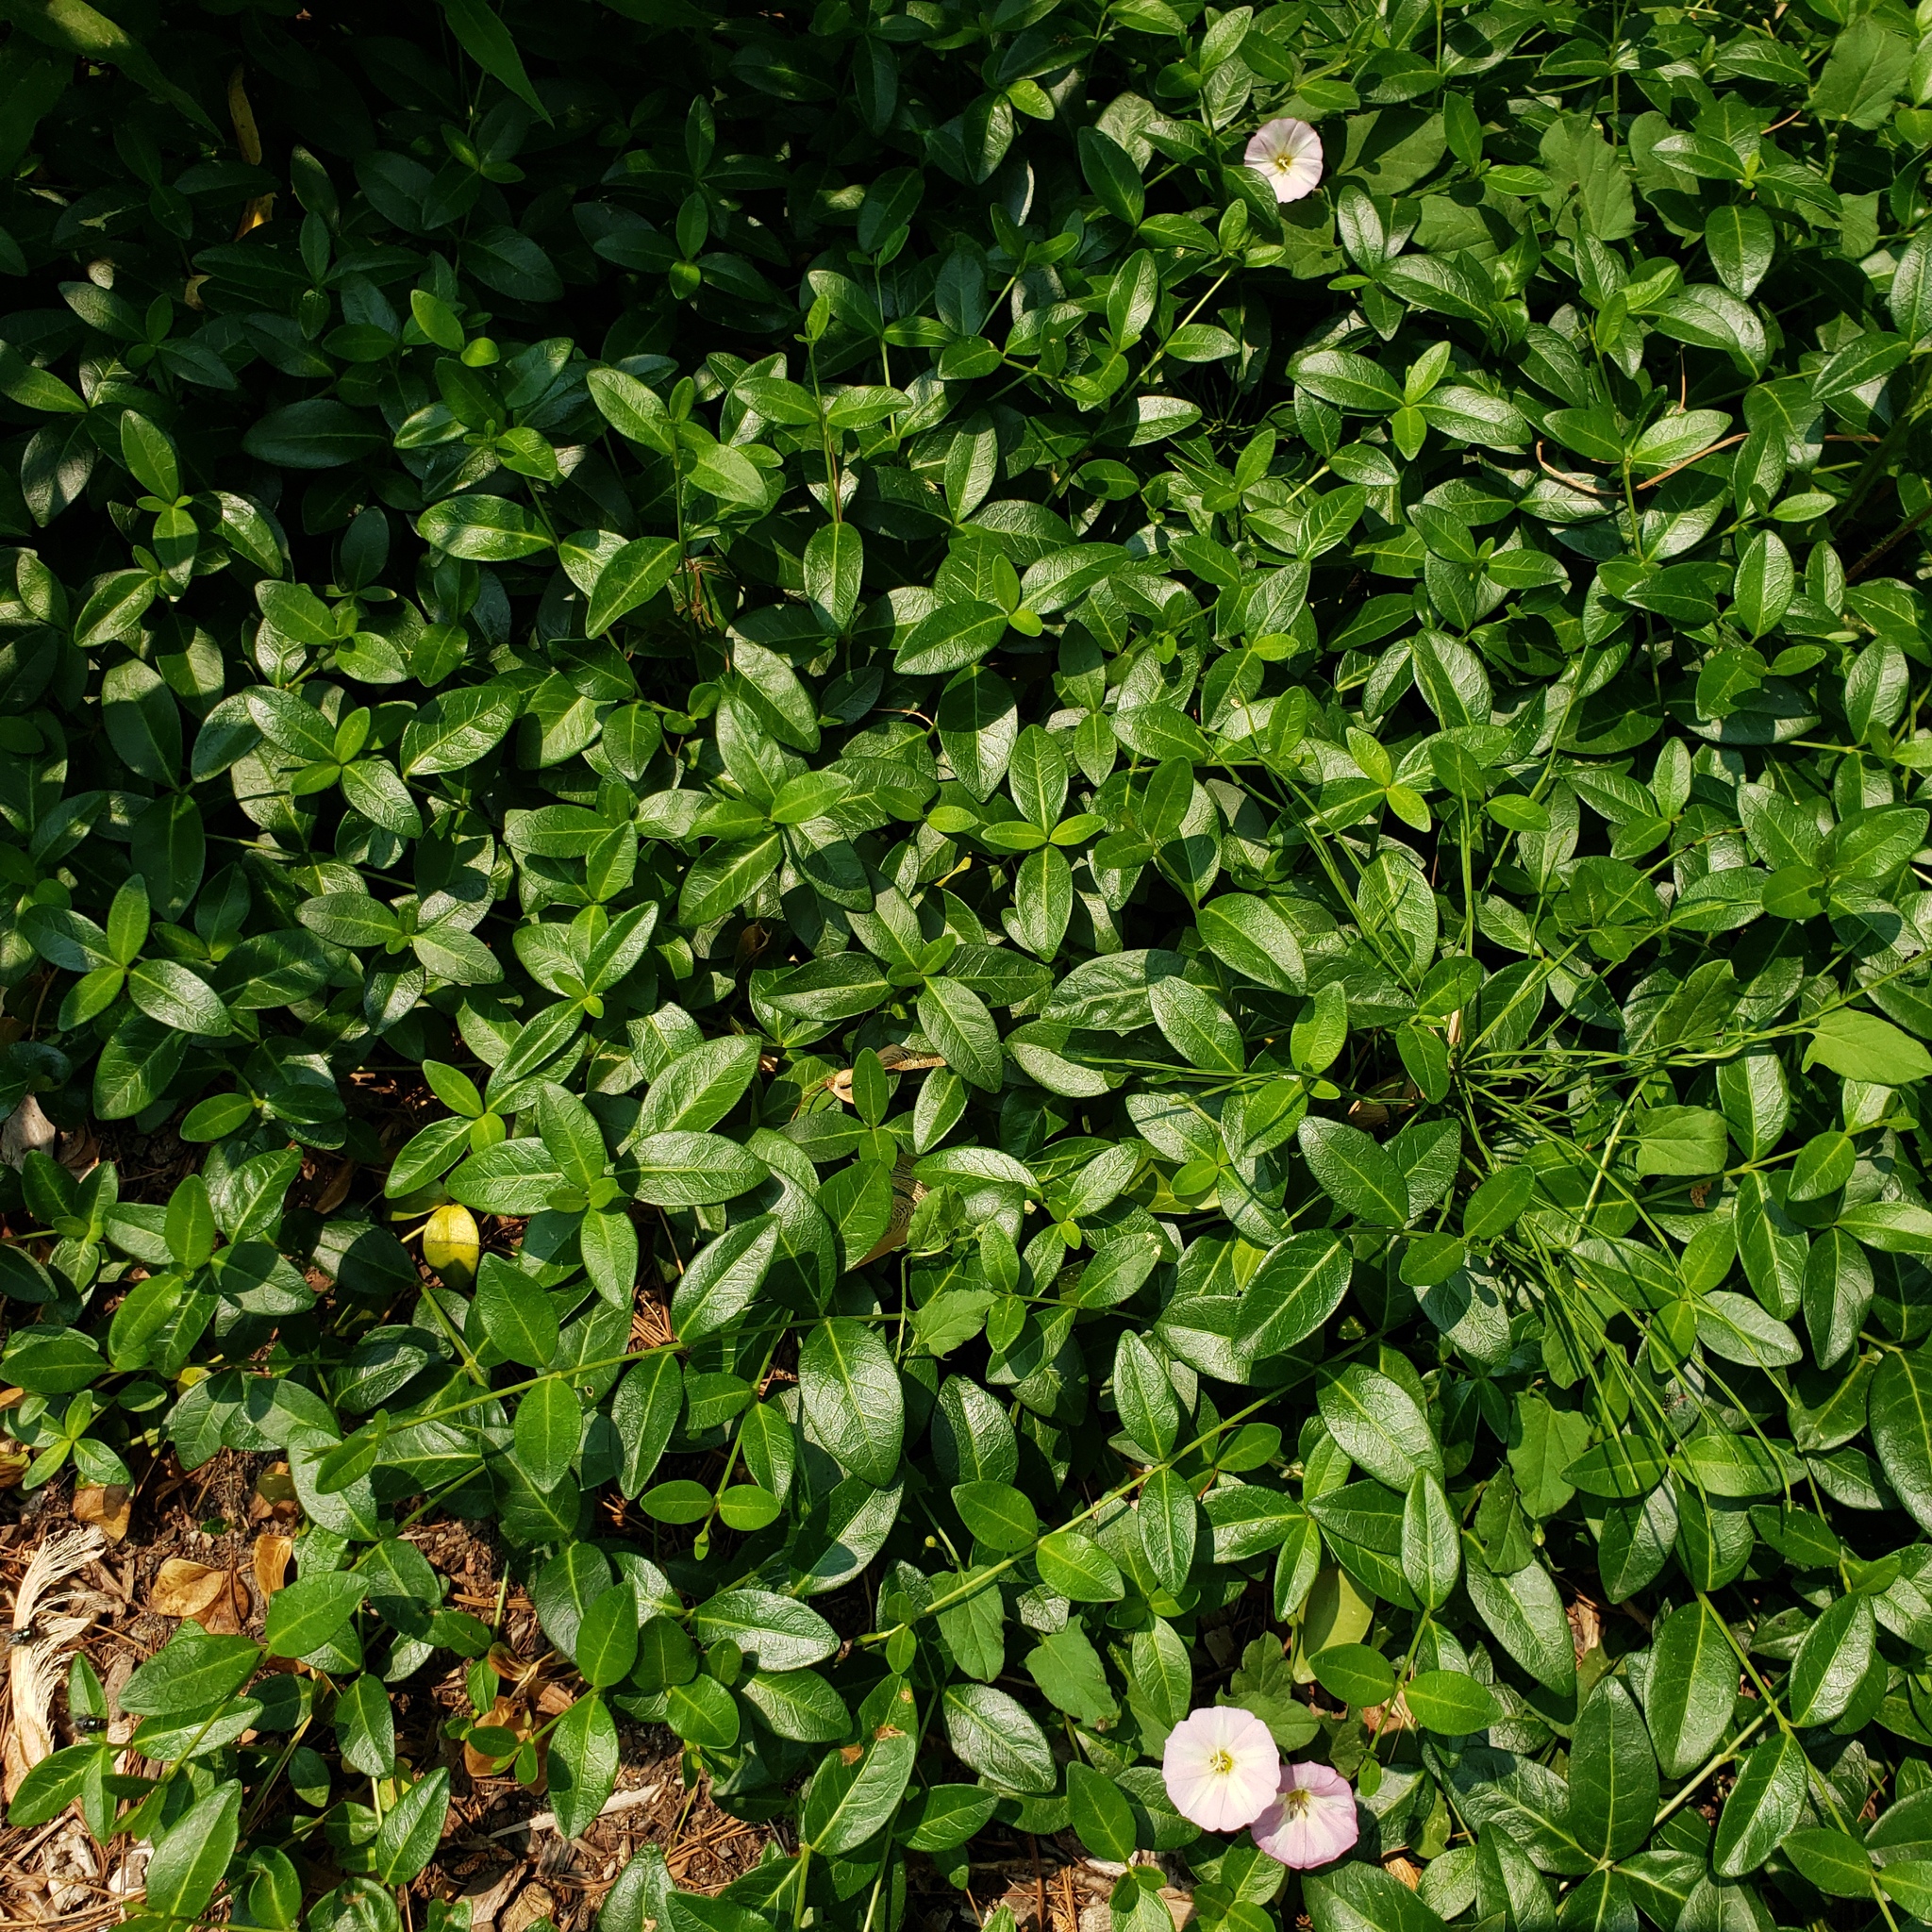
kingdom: Plantae
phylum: Tracheophyta
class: Magnoliopsida
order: Gentianales
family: Apocynaceae
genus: Vinca
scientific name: Vinca minor
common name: Lesser periwinkle
